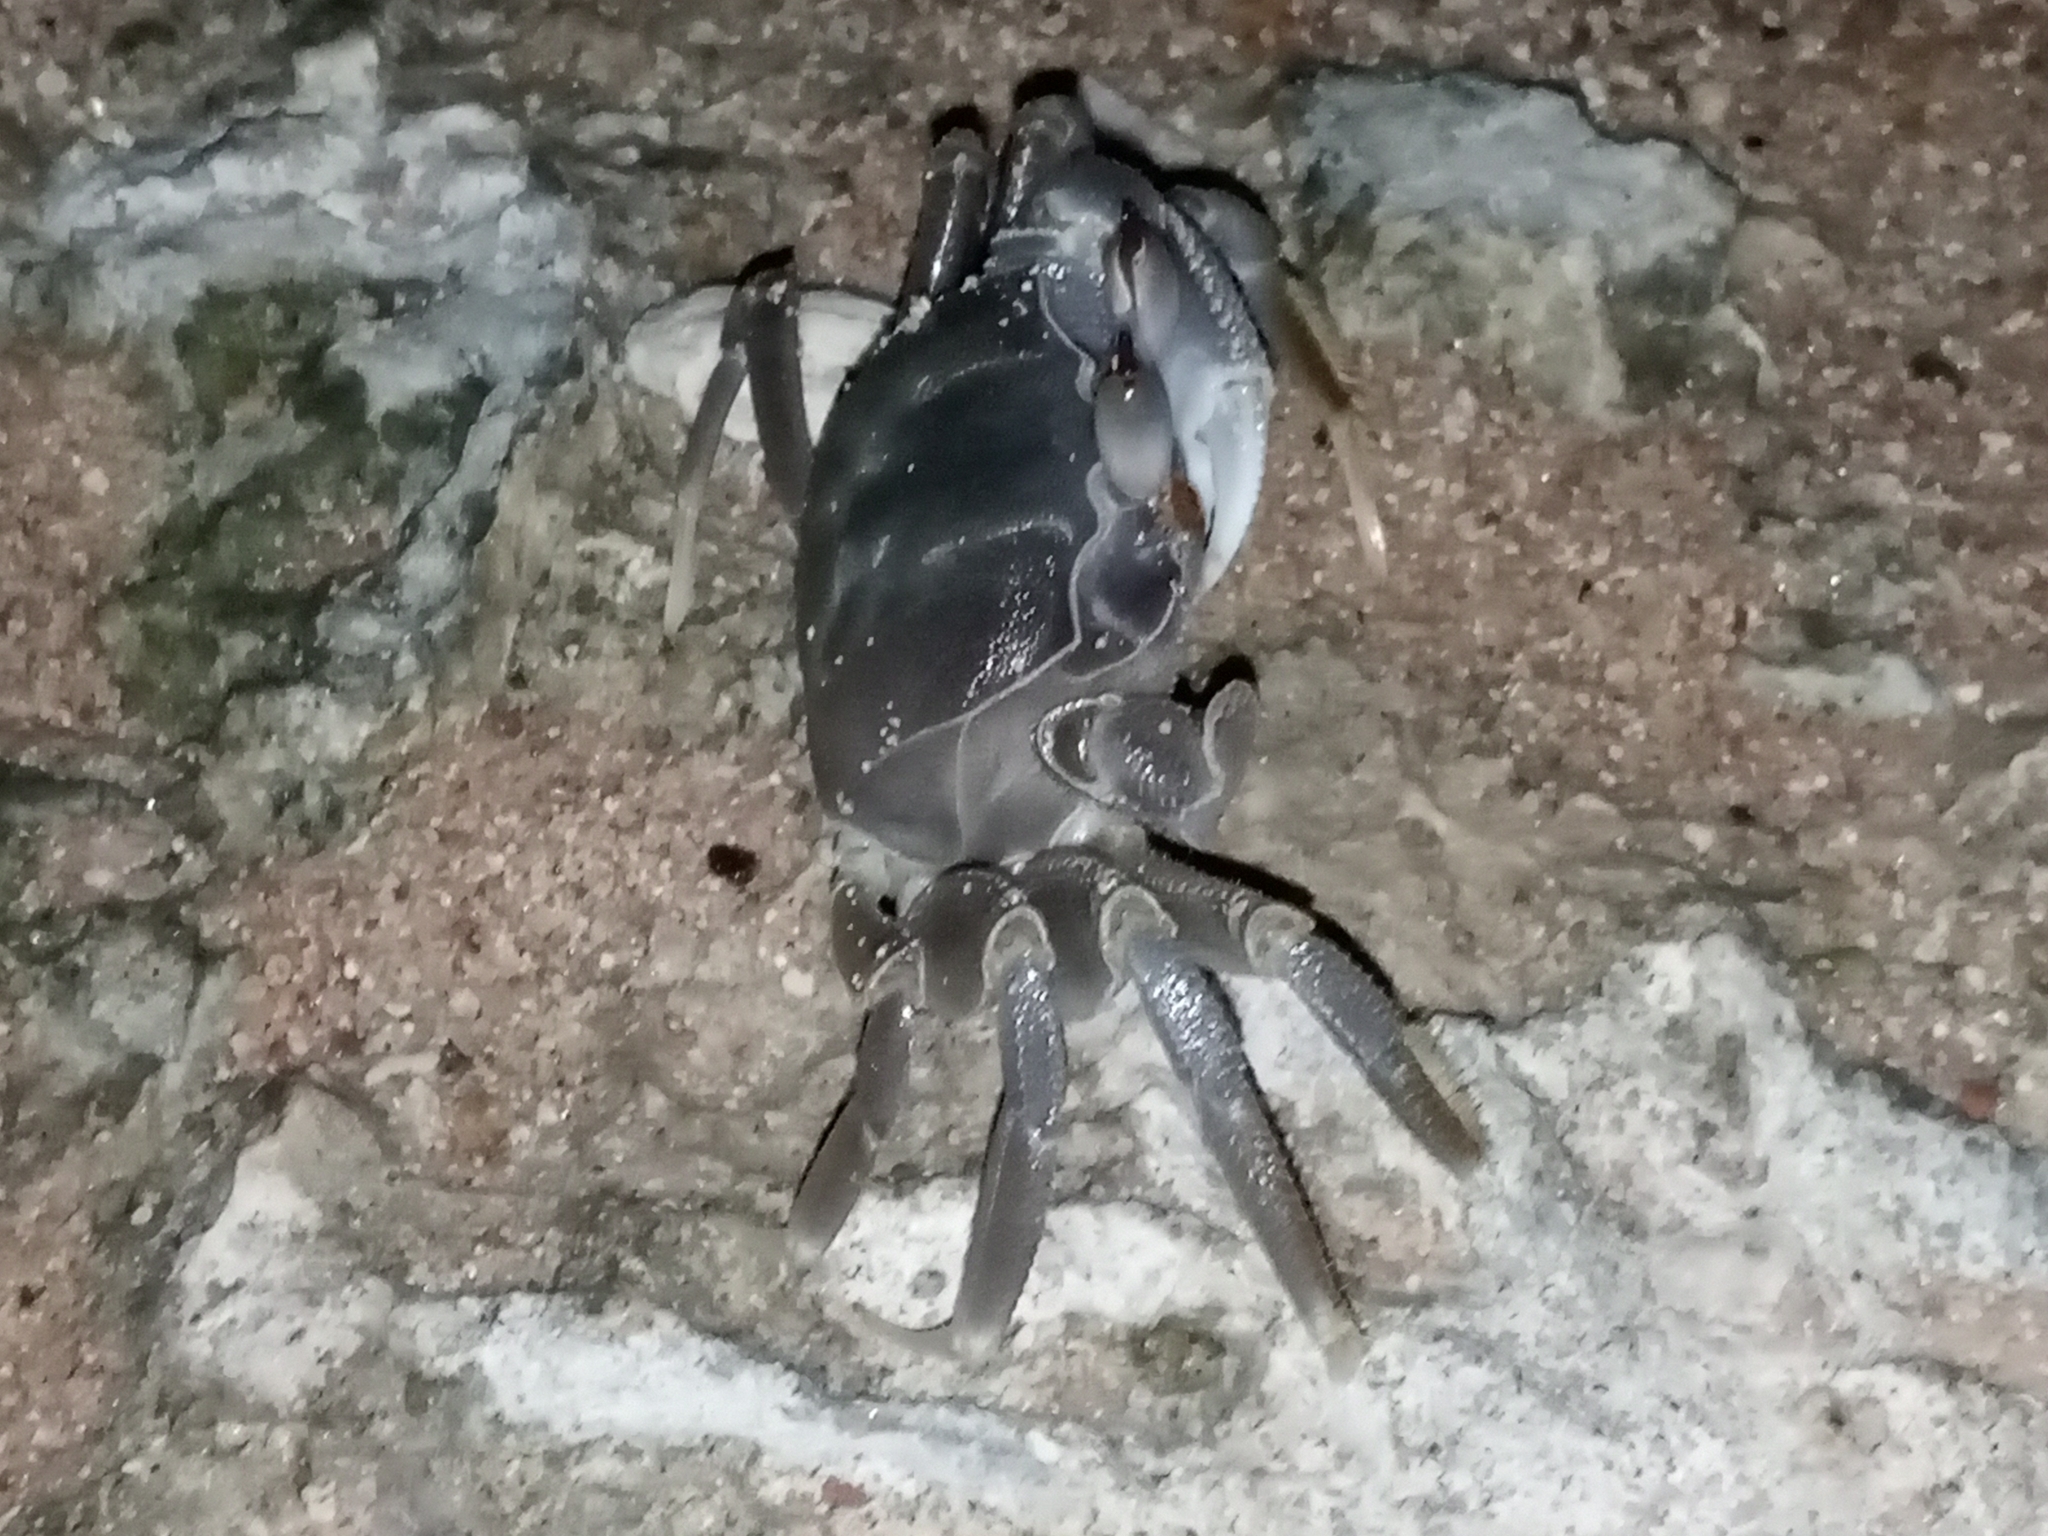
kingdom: Animalia
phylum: Arthropoda
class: Malacostraca
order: Decapoda
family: Ocypodidae
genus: Ocypode
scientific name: Ocypode saratan
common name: Red sea ghost crab
